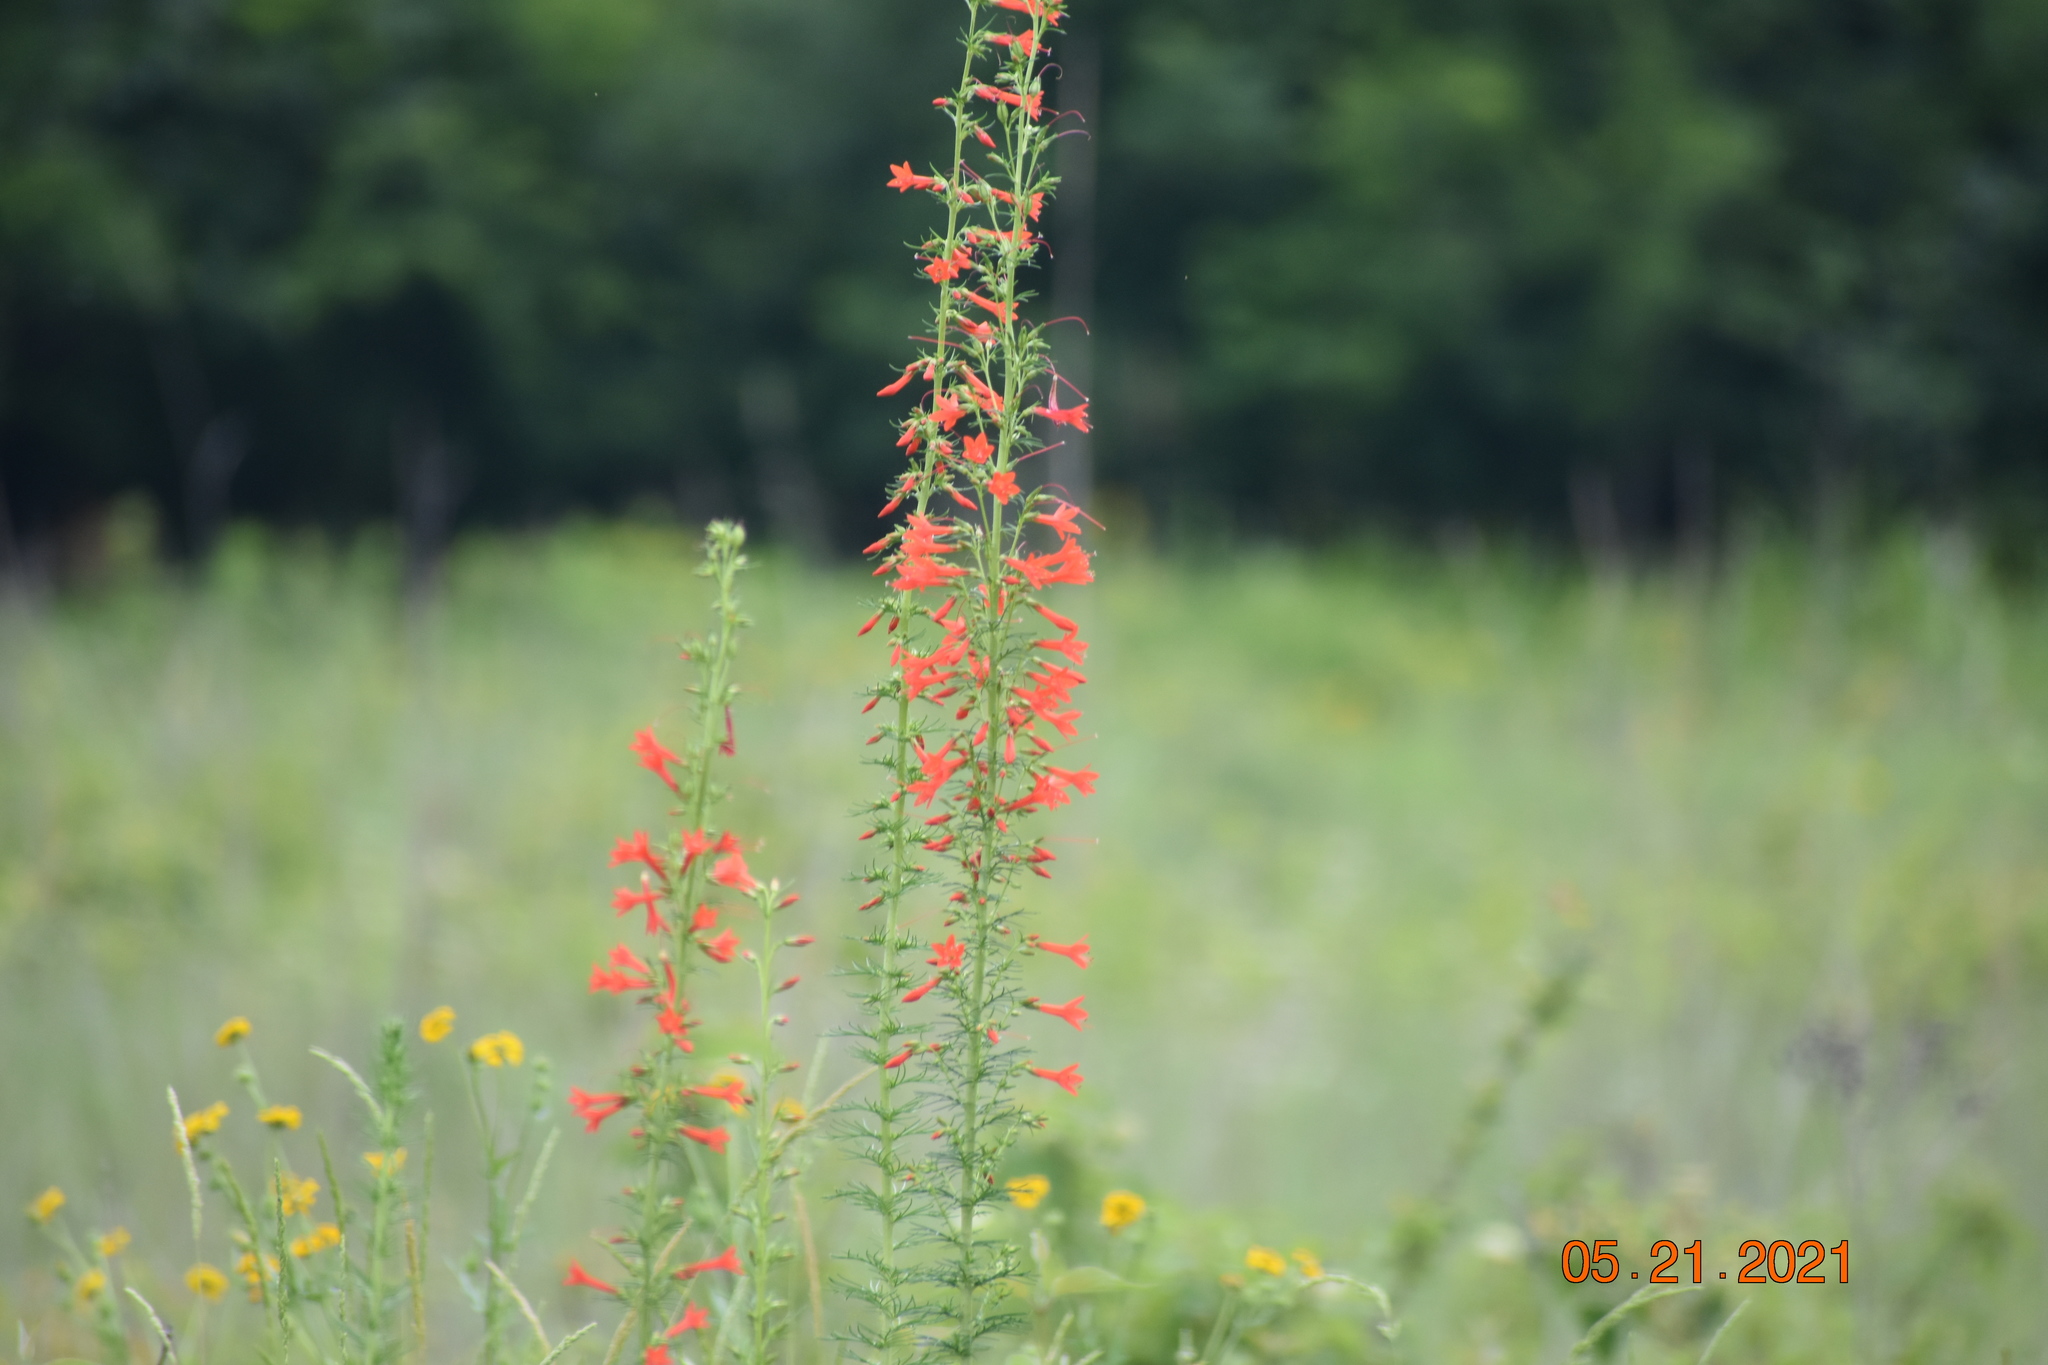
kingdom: Plantae
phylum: Tracheophyta
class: Magnoliopsida
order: Ericales
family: Polemoniaceae
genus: Ipomopsis
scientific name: Ipomopsis rubra
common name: Skyrocket
